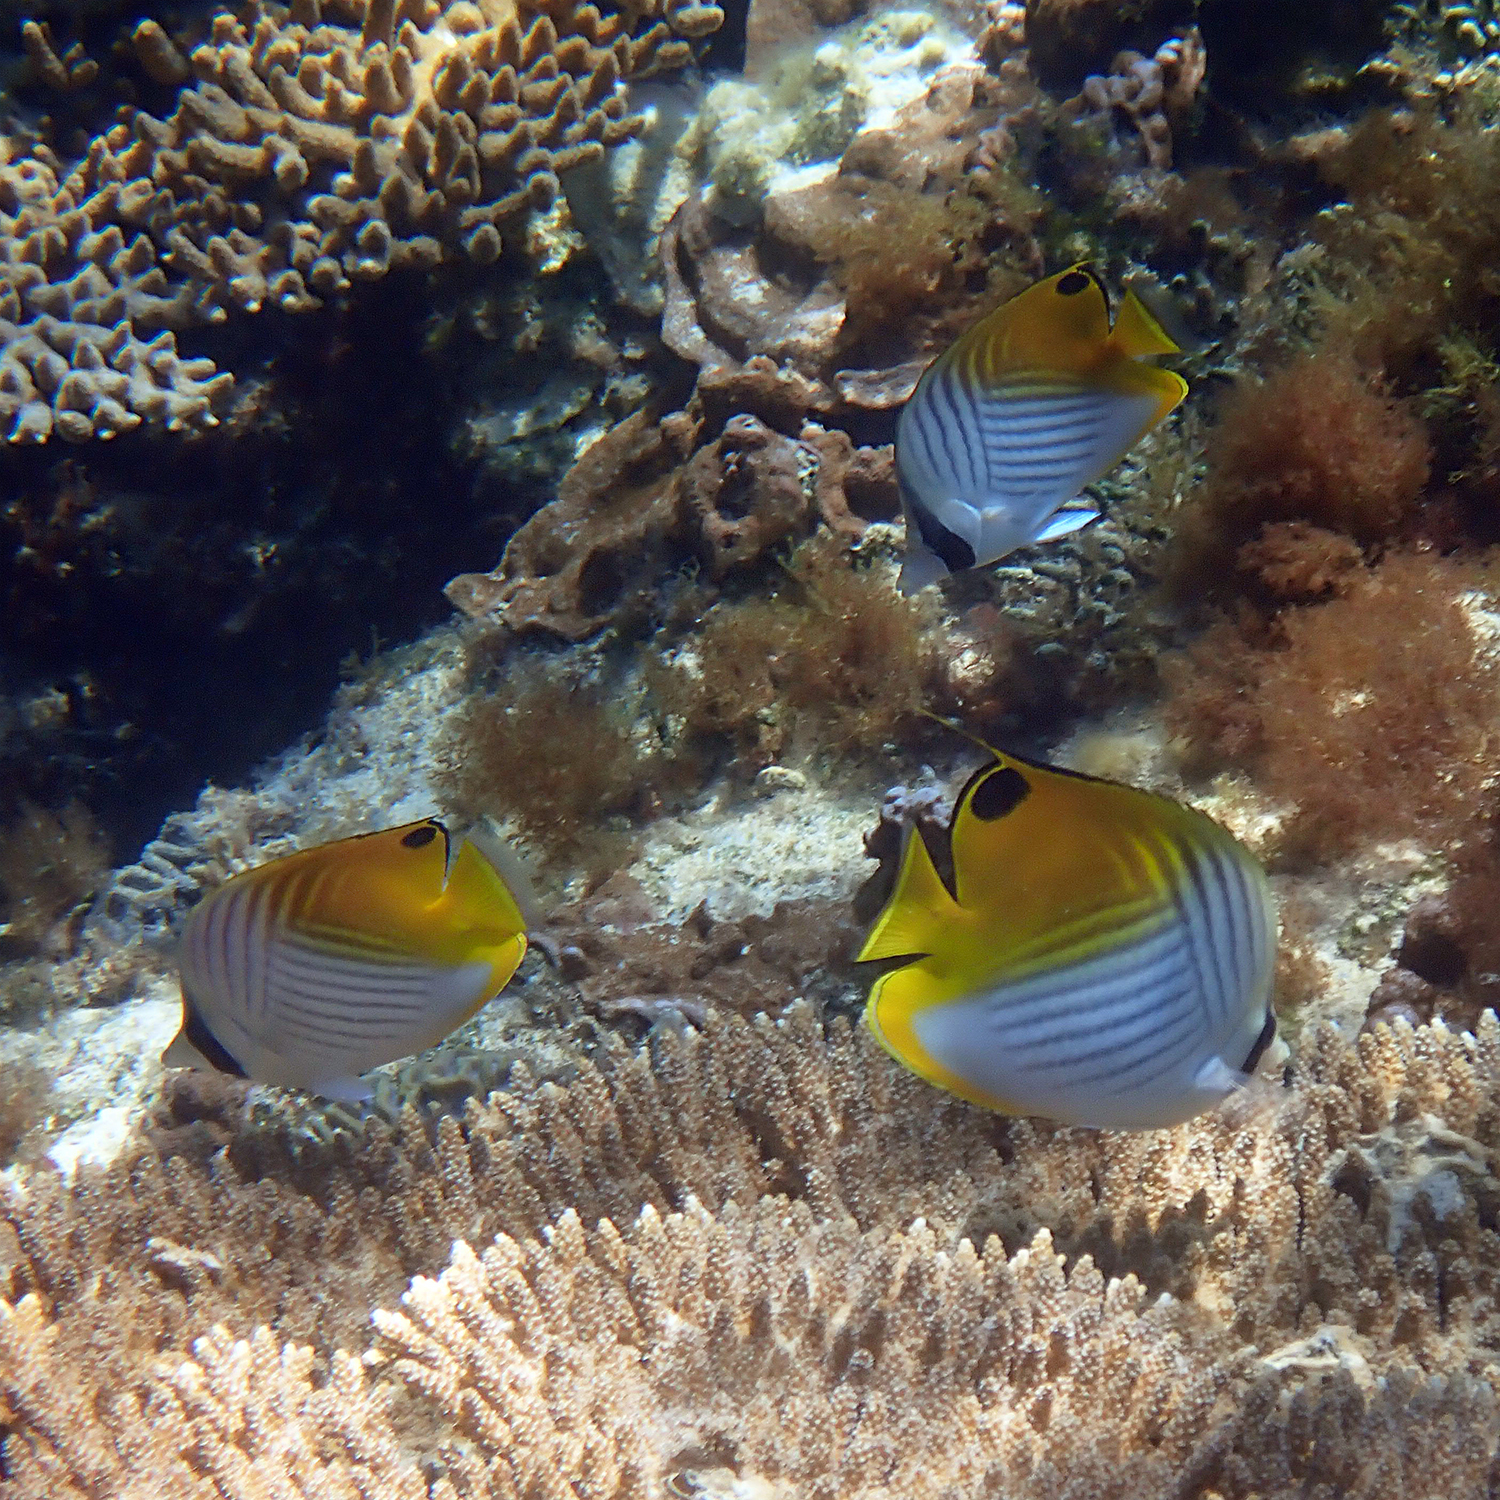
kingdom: Animalia
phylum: Chordata
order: Perciformes
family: Chaetodontidae
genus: Chaetodon
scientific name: Chaetodon auriga
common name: Threadfin butterflyfish
